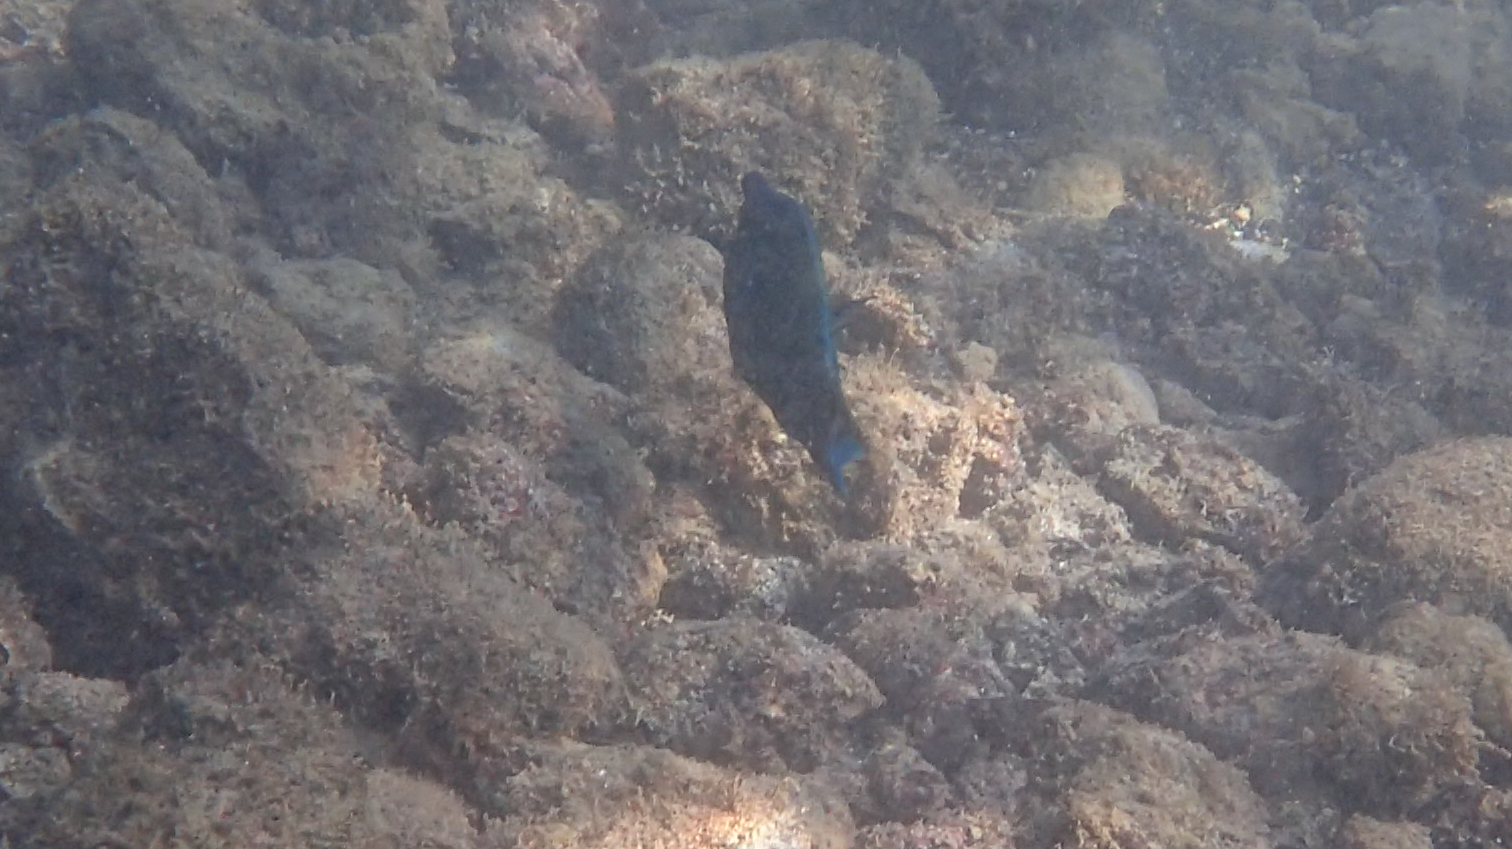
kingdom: Animalia
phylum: Chordata
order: Perciformes
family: Labridae
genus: Gomphosus
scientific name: Gomphosus varius
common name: Bird wrasse
